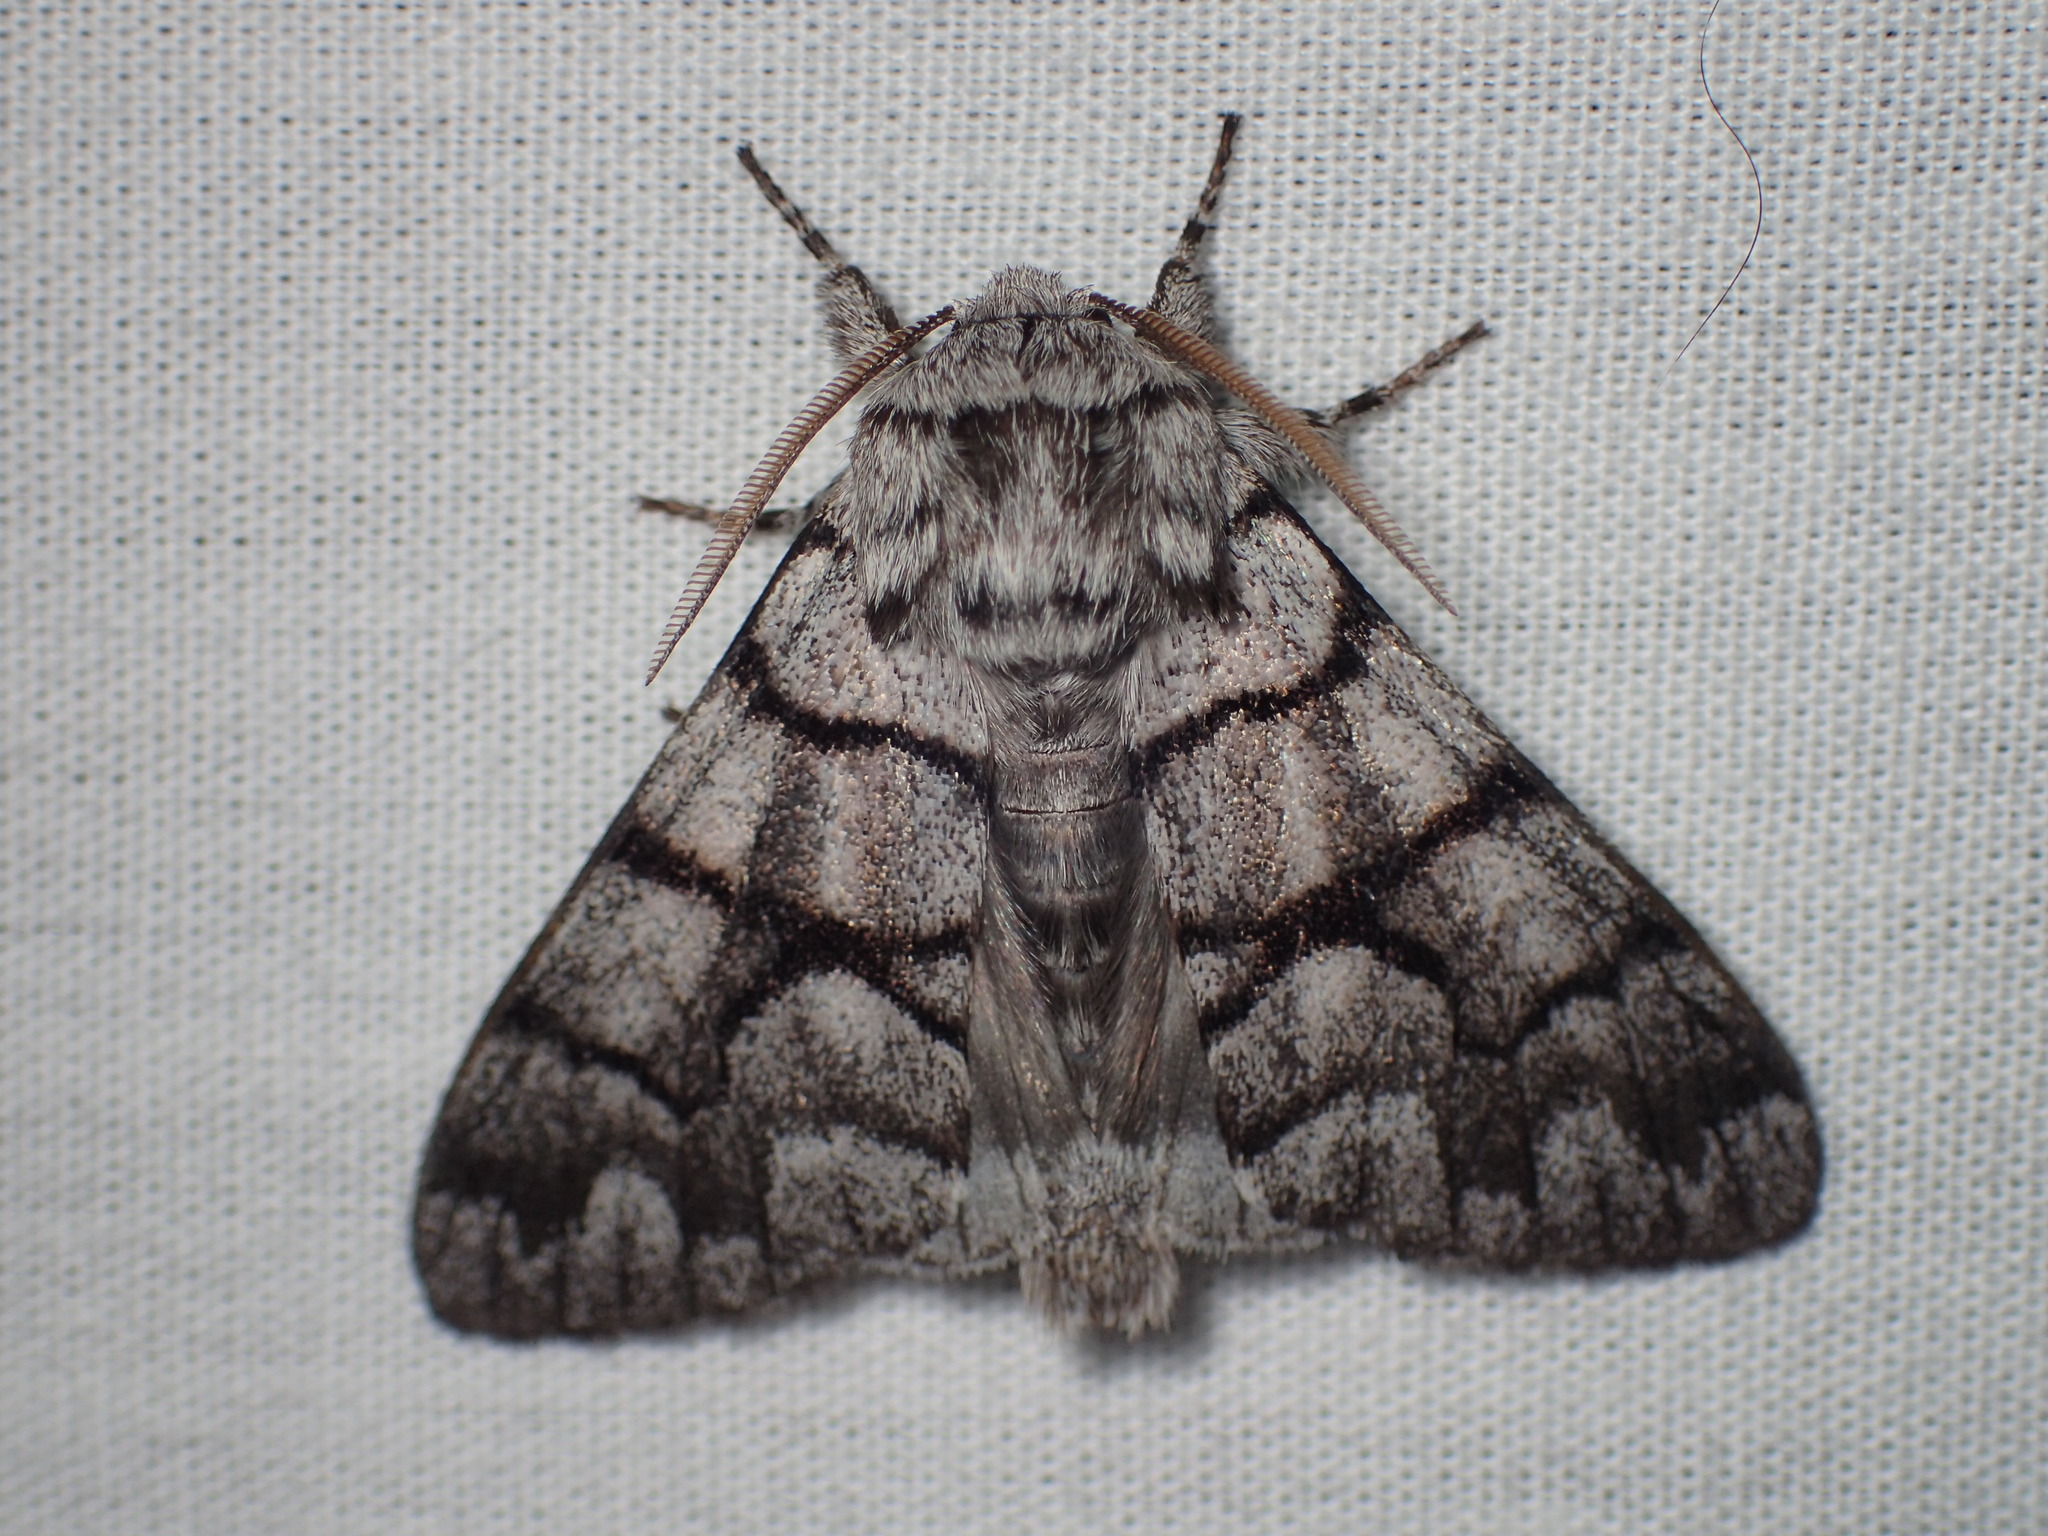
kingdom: Animalia
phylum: Arthropoda
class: Insecta
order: Lepidoptera
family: Noctuidae
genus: Panthea
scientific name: Panthea furcilla
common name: Eastern panthea moth
